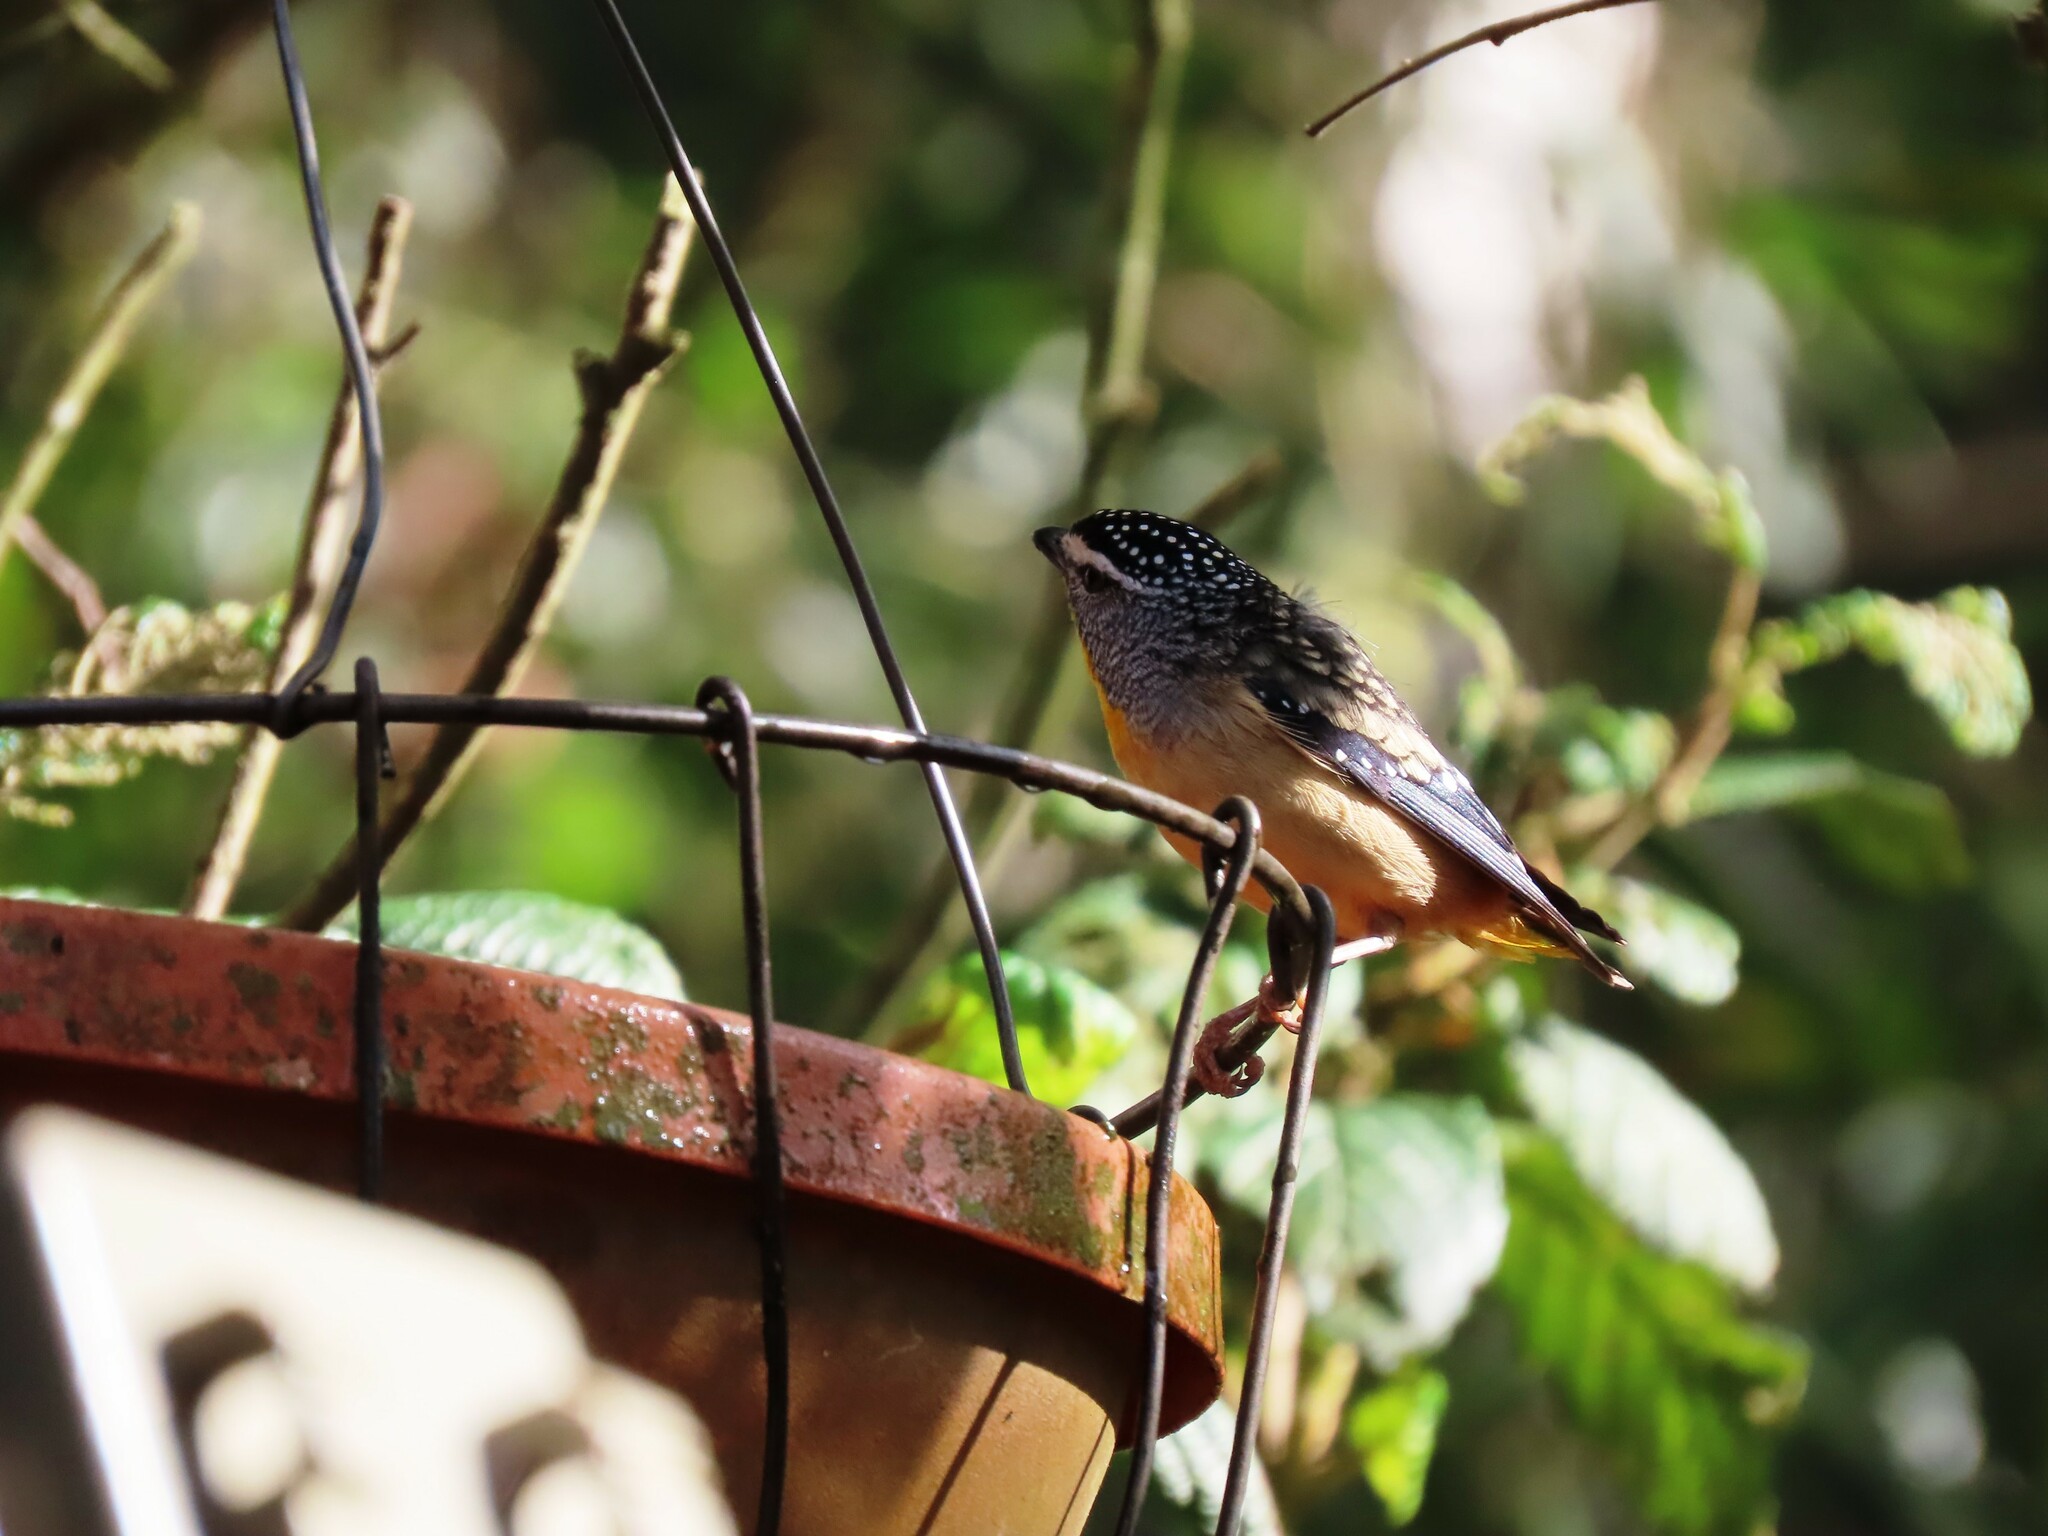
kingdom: Animalia
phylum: Chordata
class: Aves
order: Passeriformes
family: Pardalotidae
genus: Pardalotus
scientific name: Pardalotus punctatus
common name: Spotted pardalote
